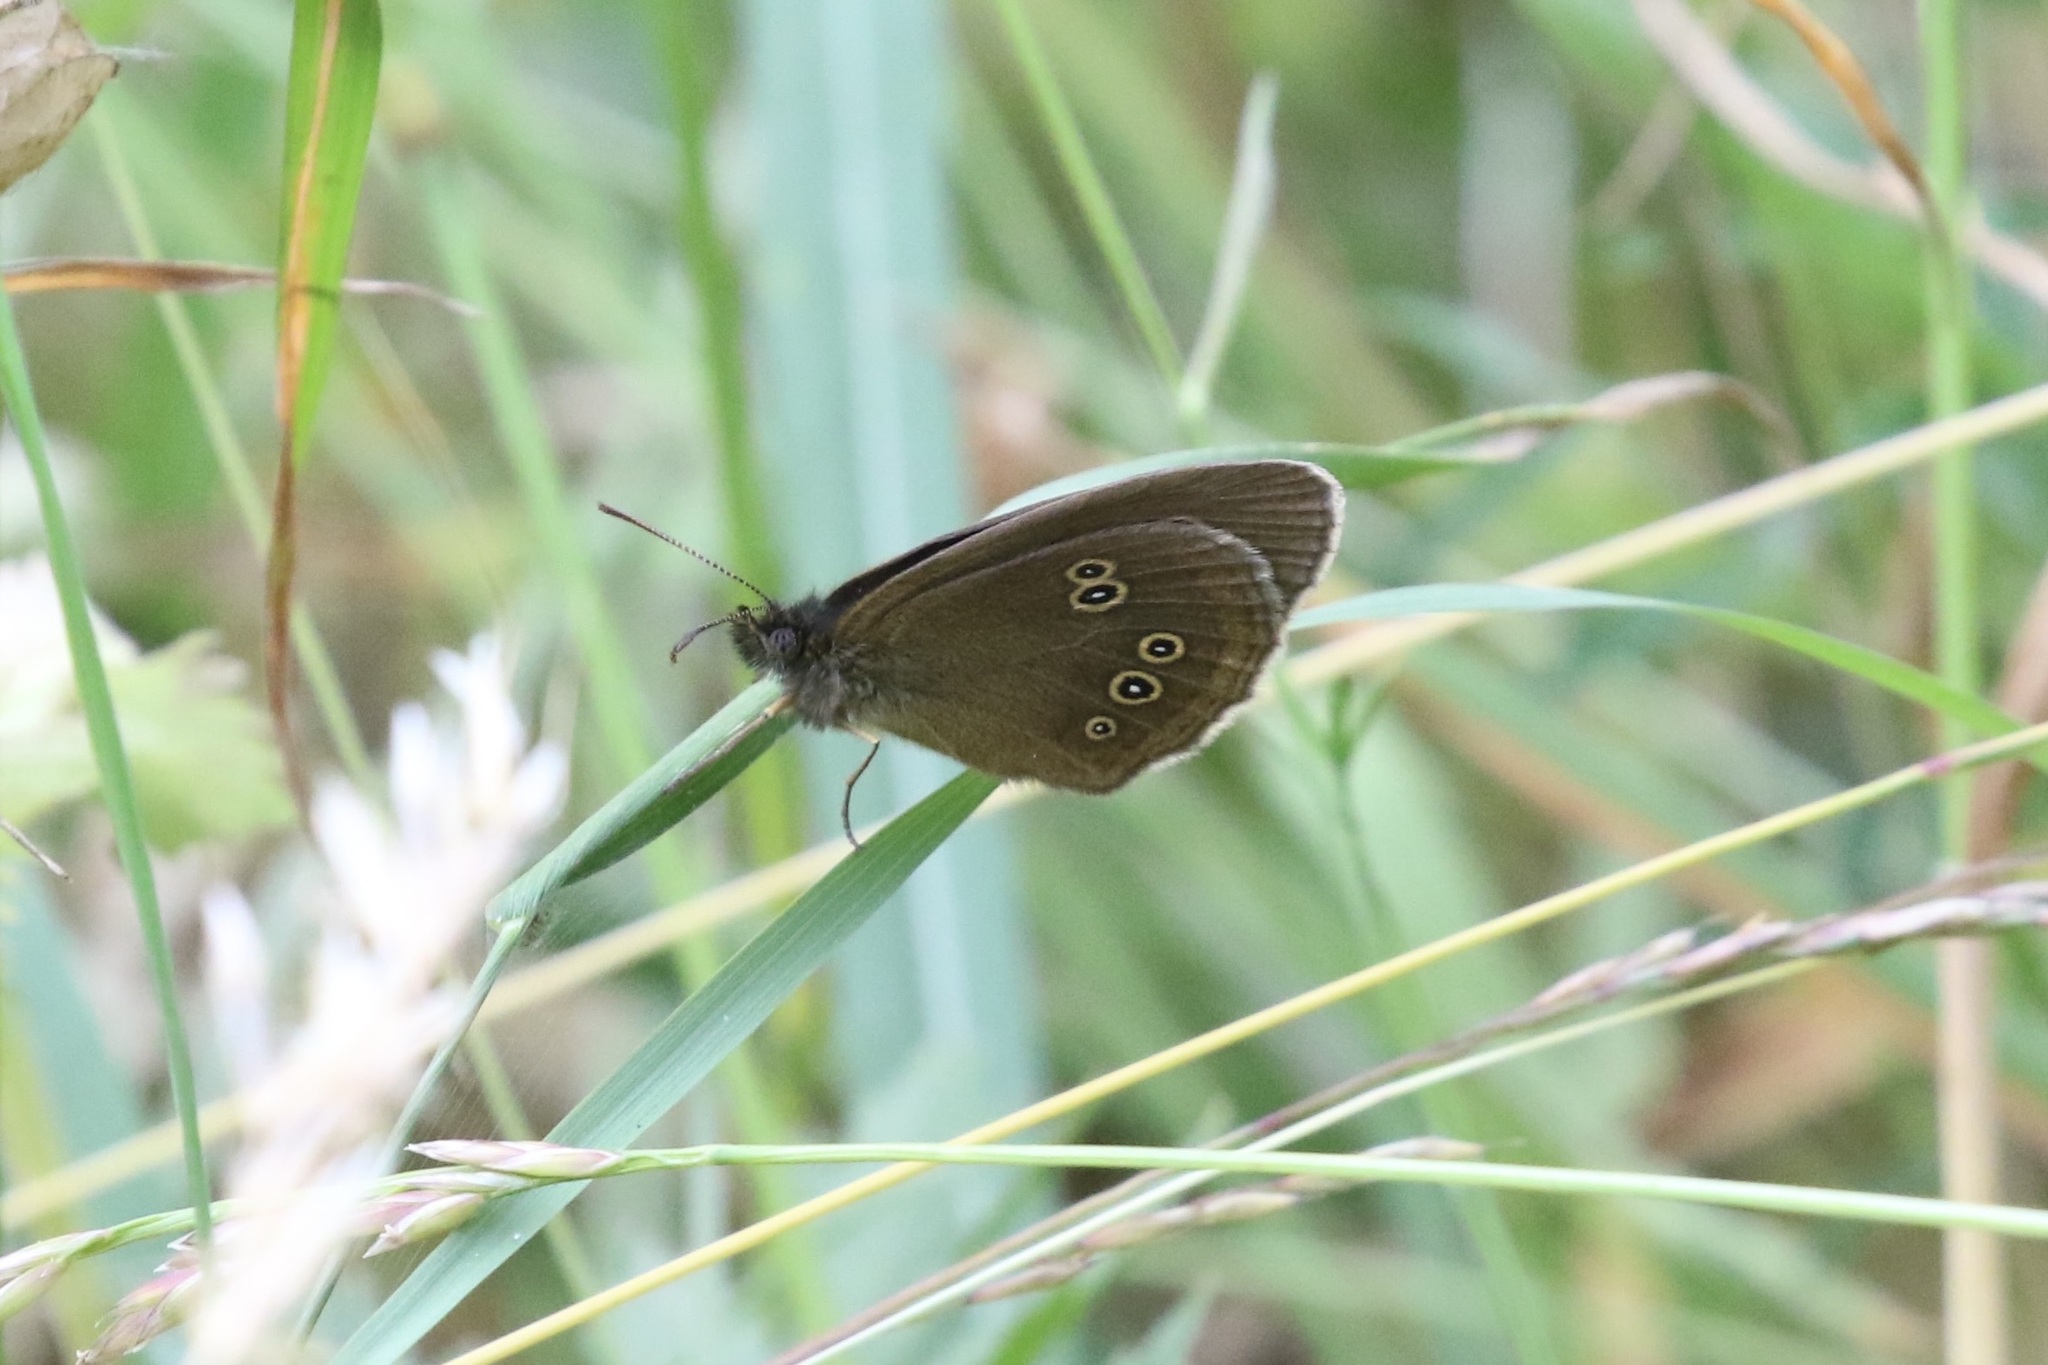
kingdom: Animalia
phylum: Arthropoda
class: Insecta
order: Lepidoptera
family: Nymphalidae
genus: Aphantopus
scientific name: Aphantopus hyperantus
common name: Ringlet
